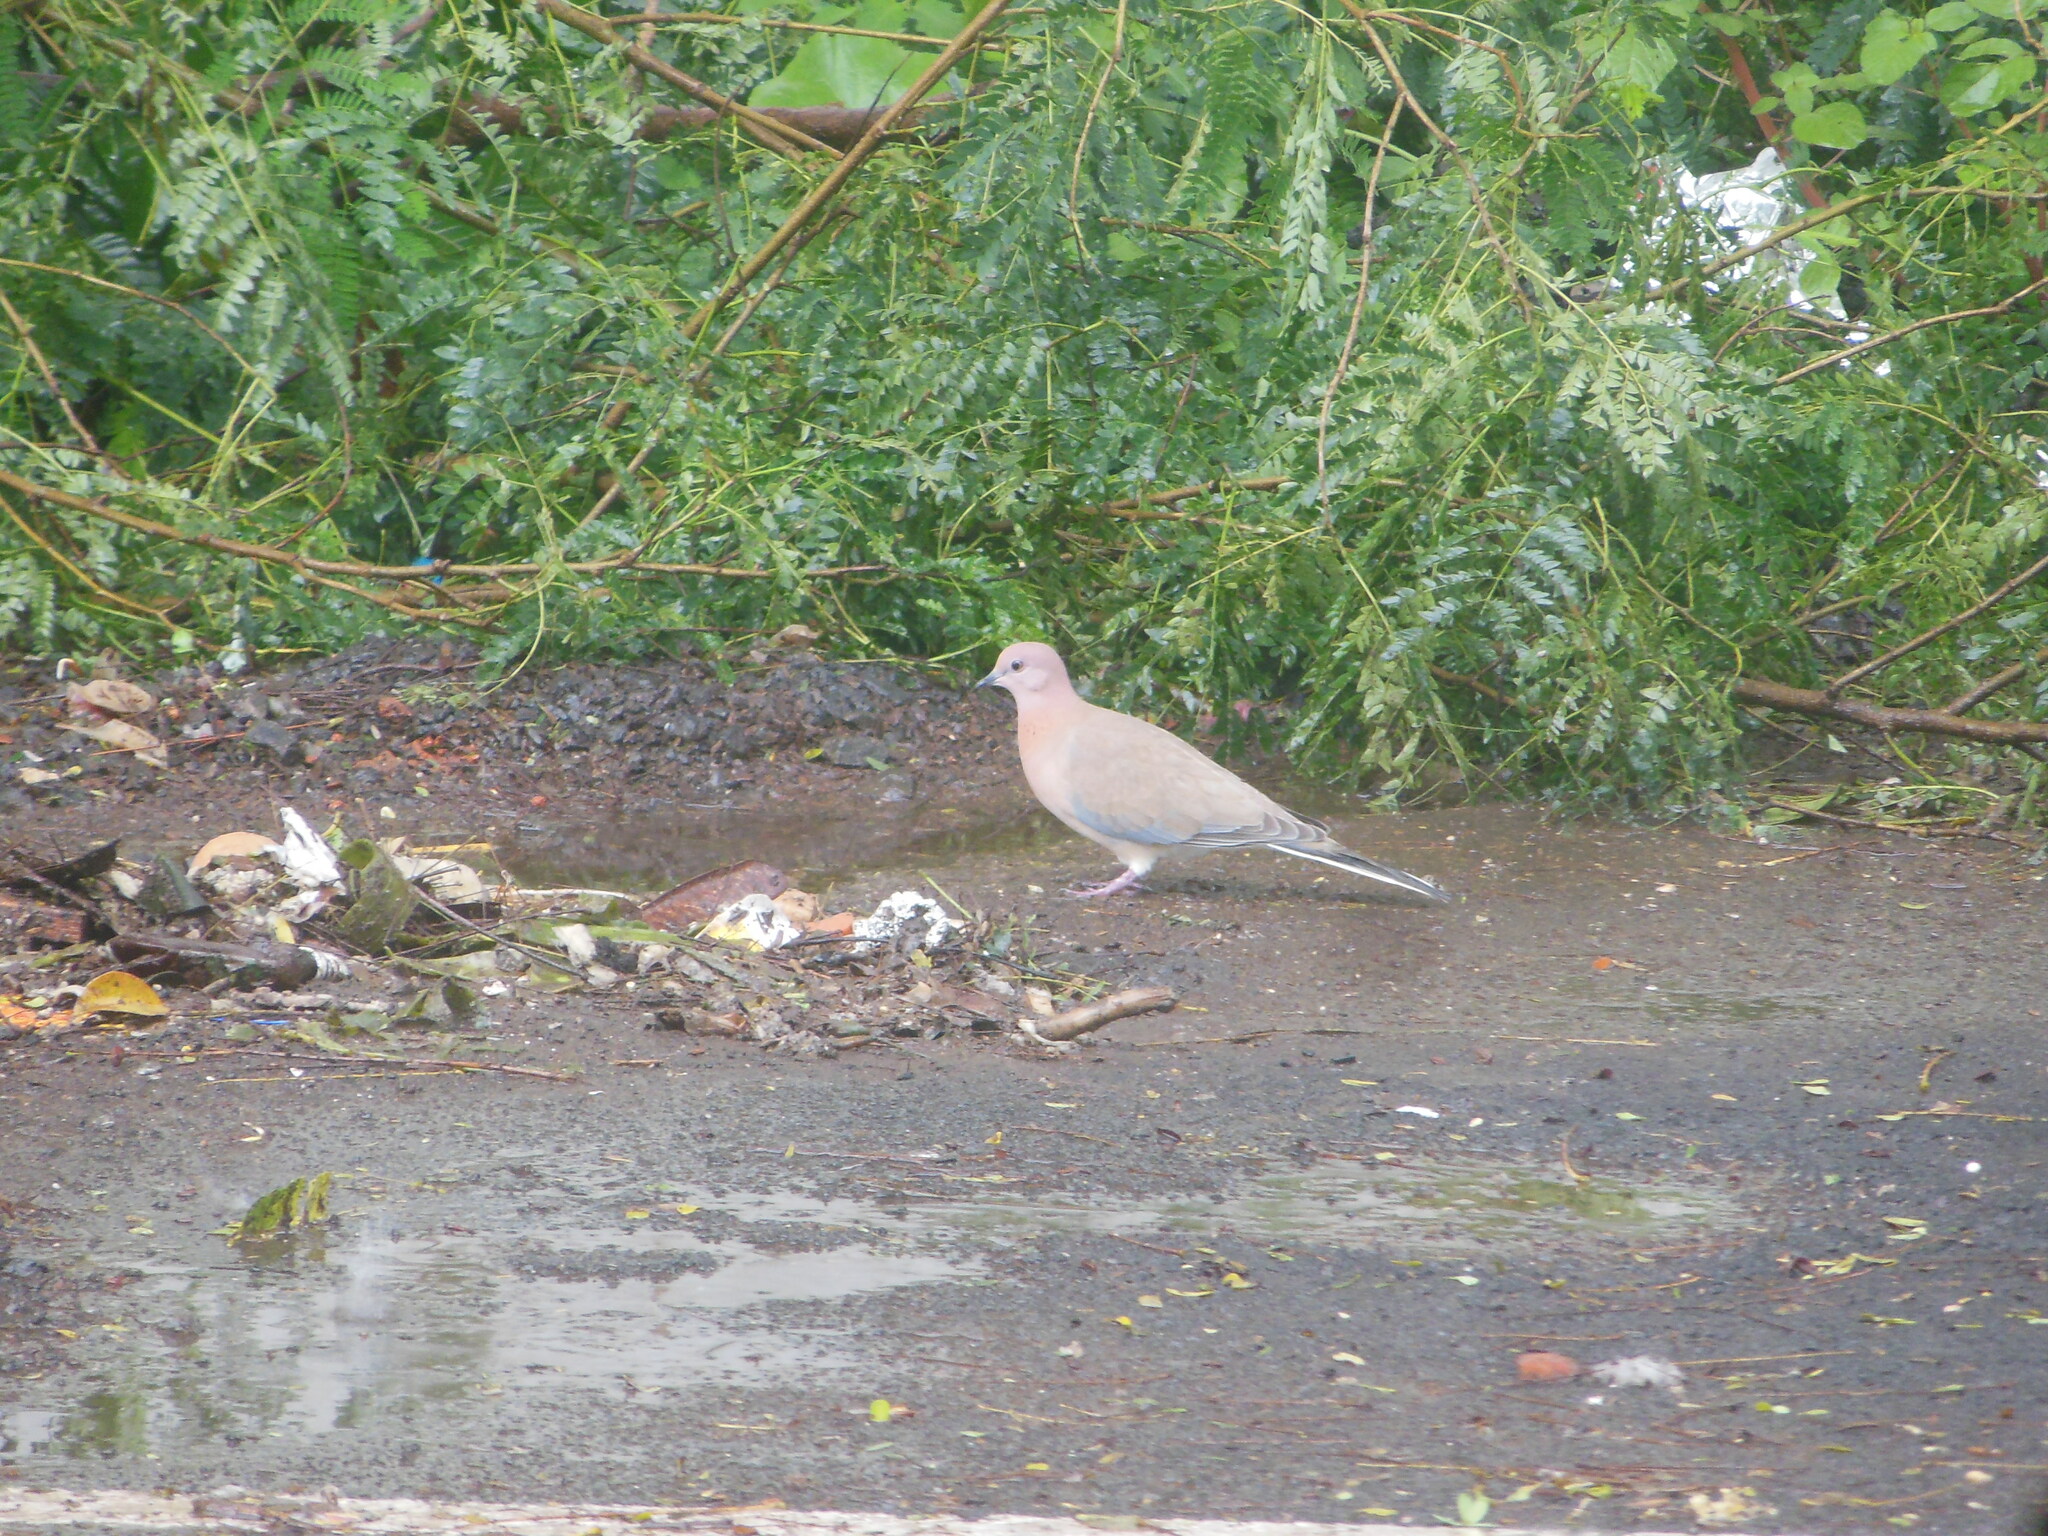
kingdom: Animalia
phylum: Chordata
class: Aves
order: Columbiformes
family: Columbidae
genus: Spilopelia
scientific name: Spilopelia senegalensis
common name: Laughing dove
